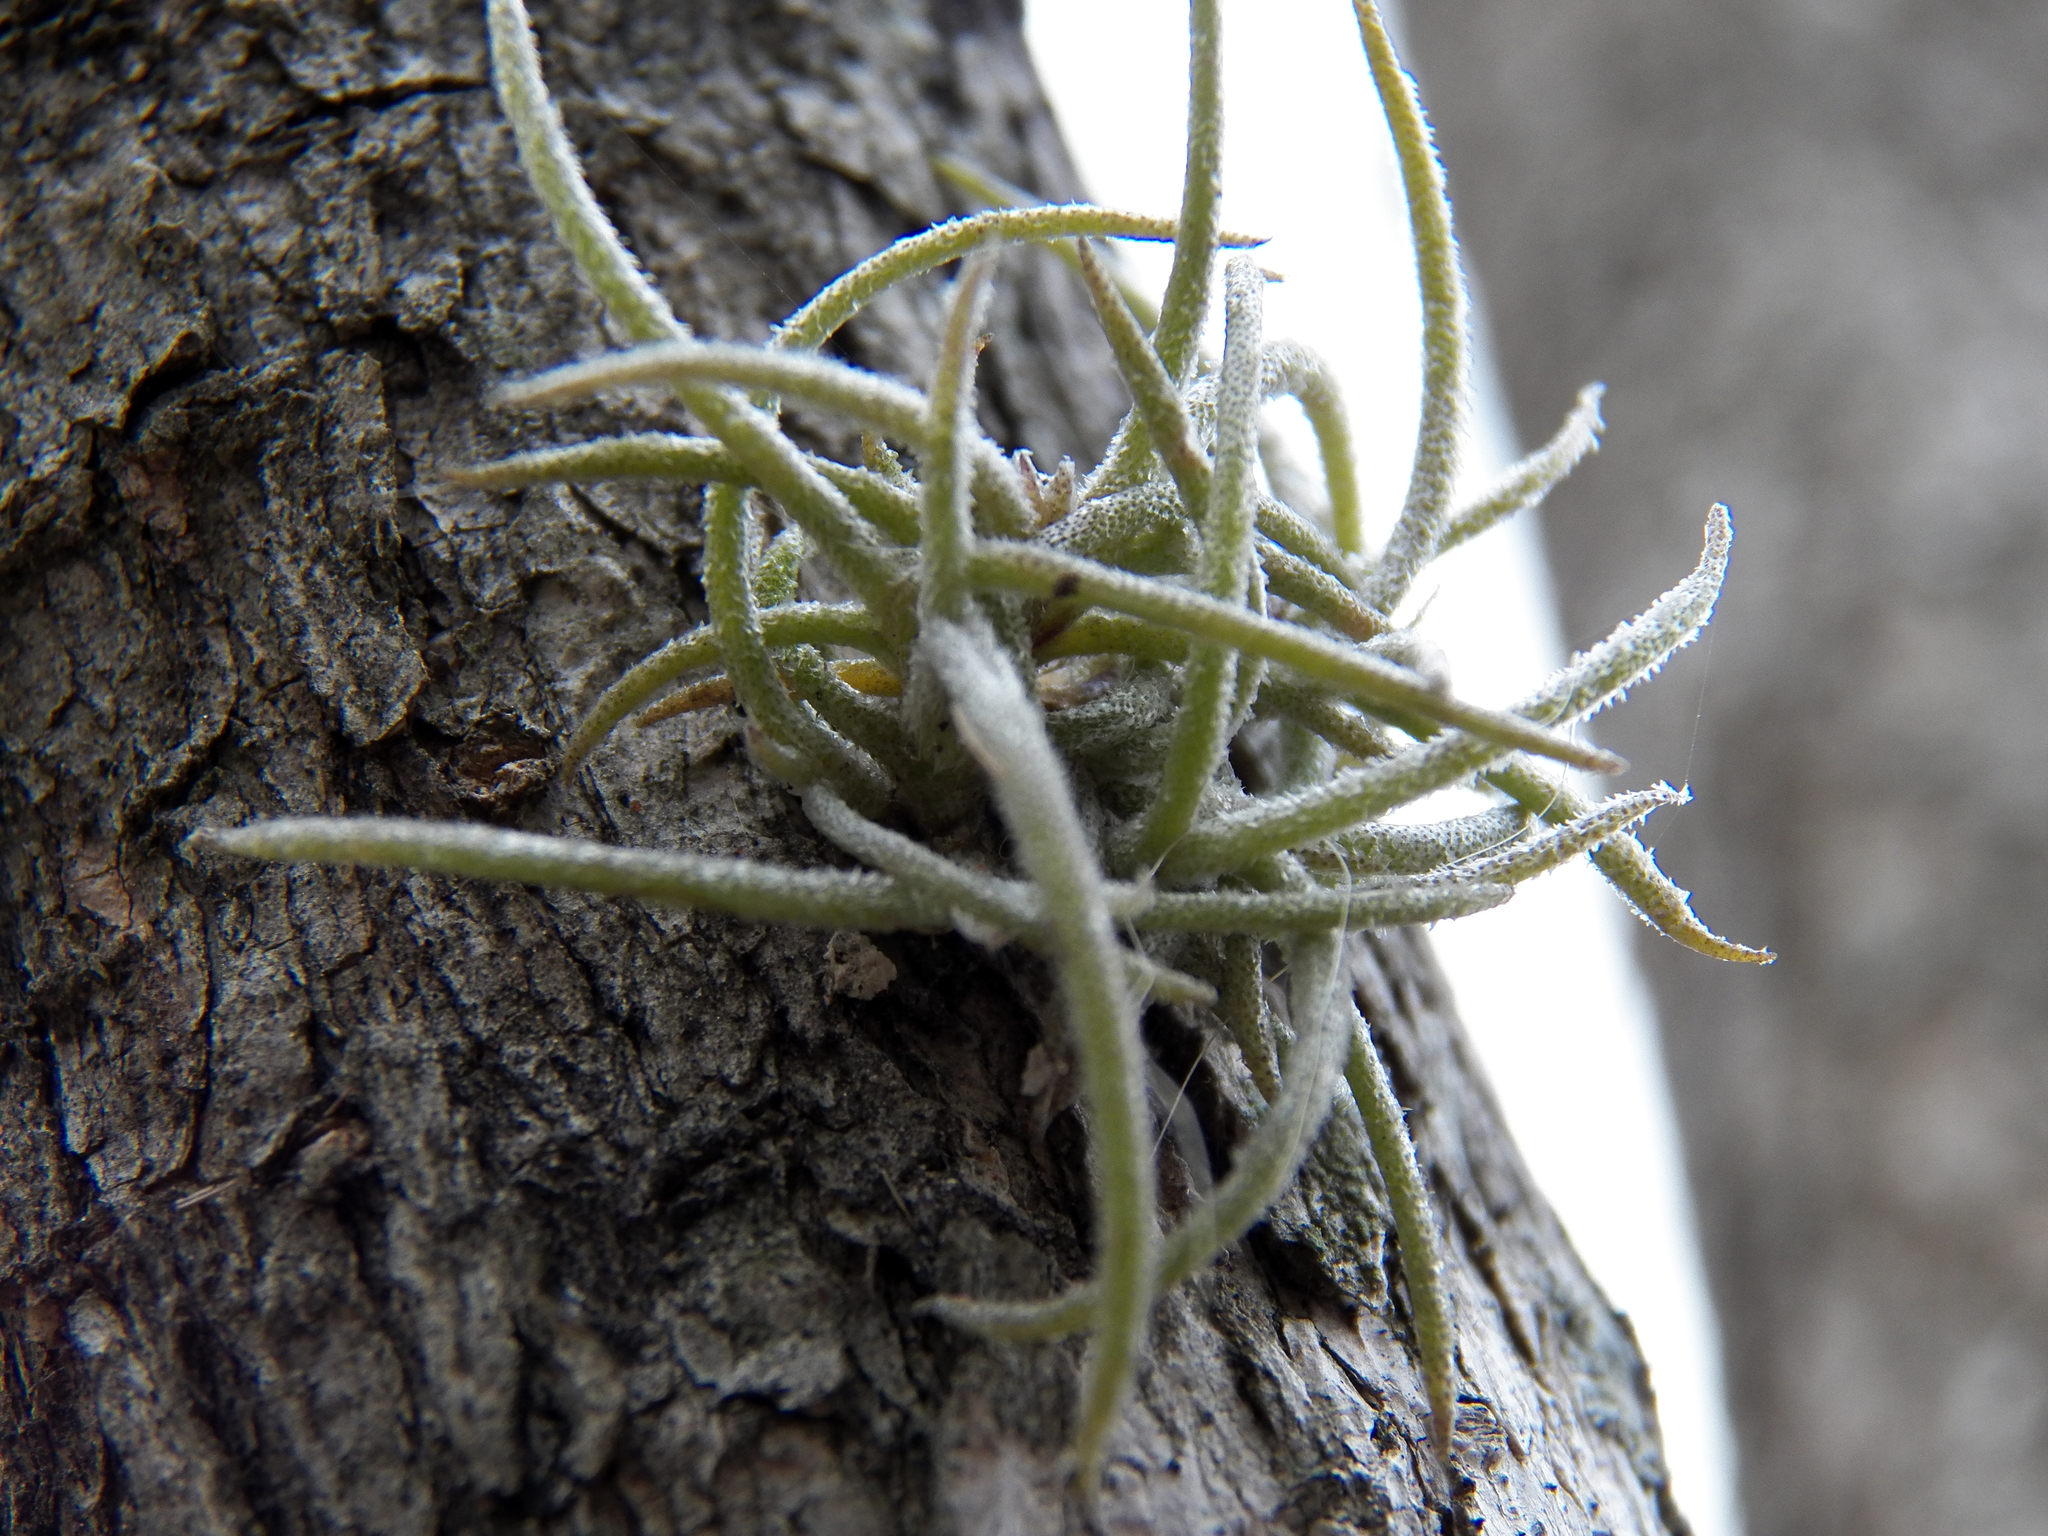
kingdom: Plantae
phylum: Tracheophyta
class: Liliopsida
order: Poales
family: Bromeliaceae
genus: Tillandsia
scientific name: Tillandsia recurvata
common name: Small ballmoss
